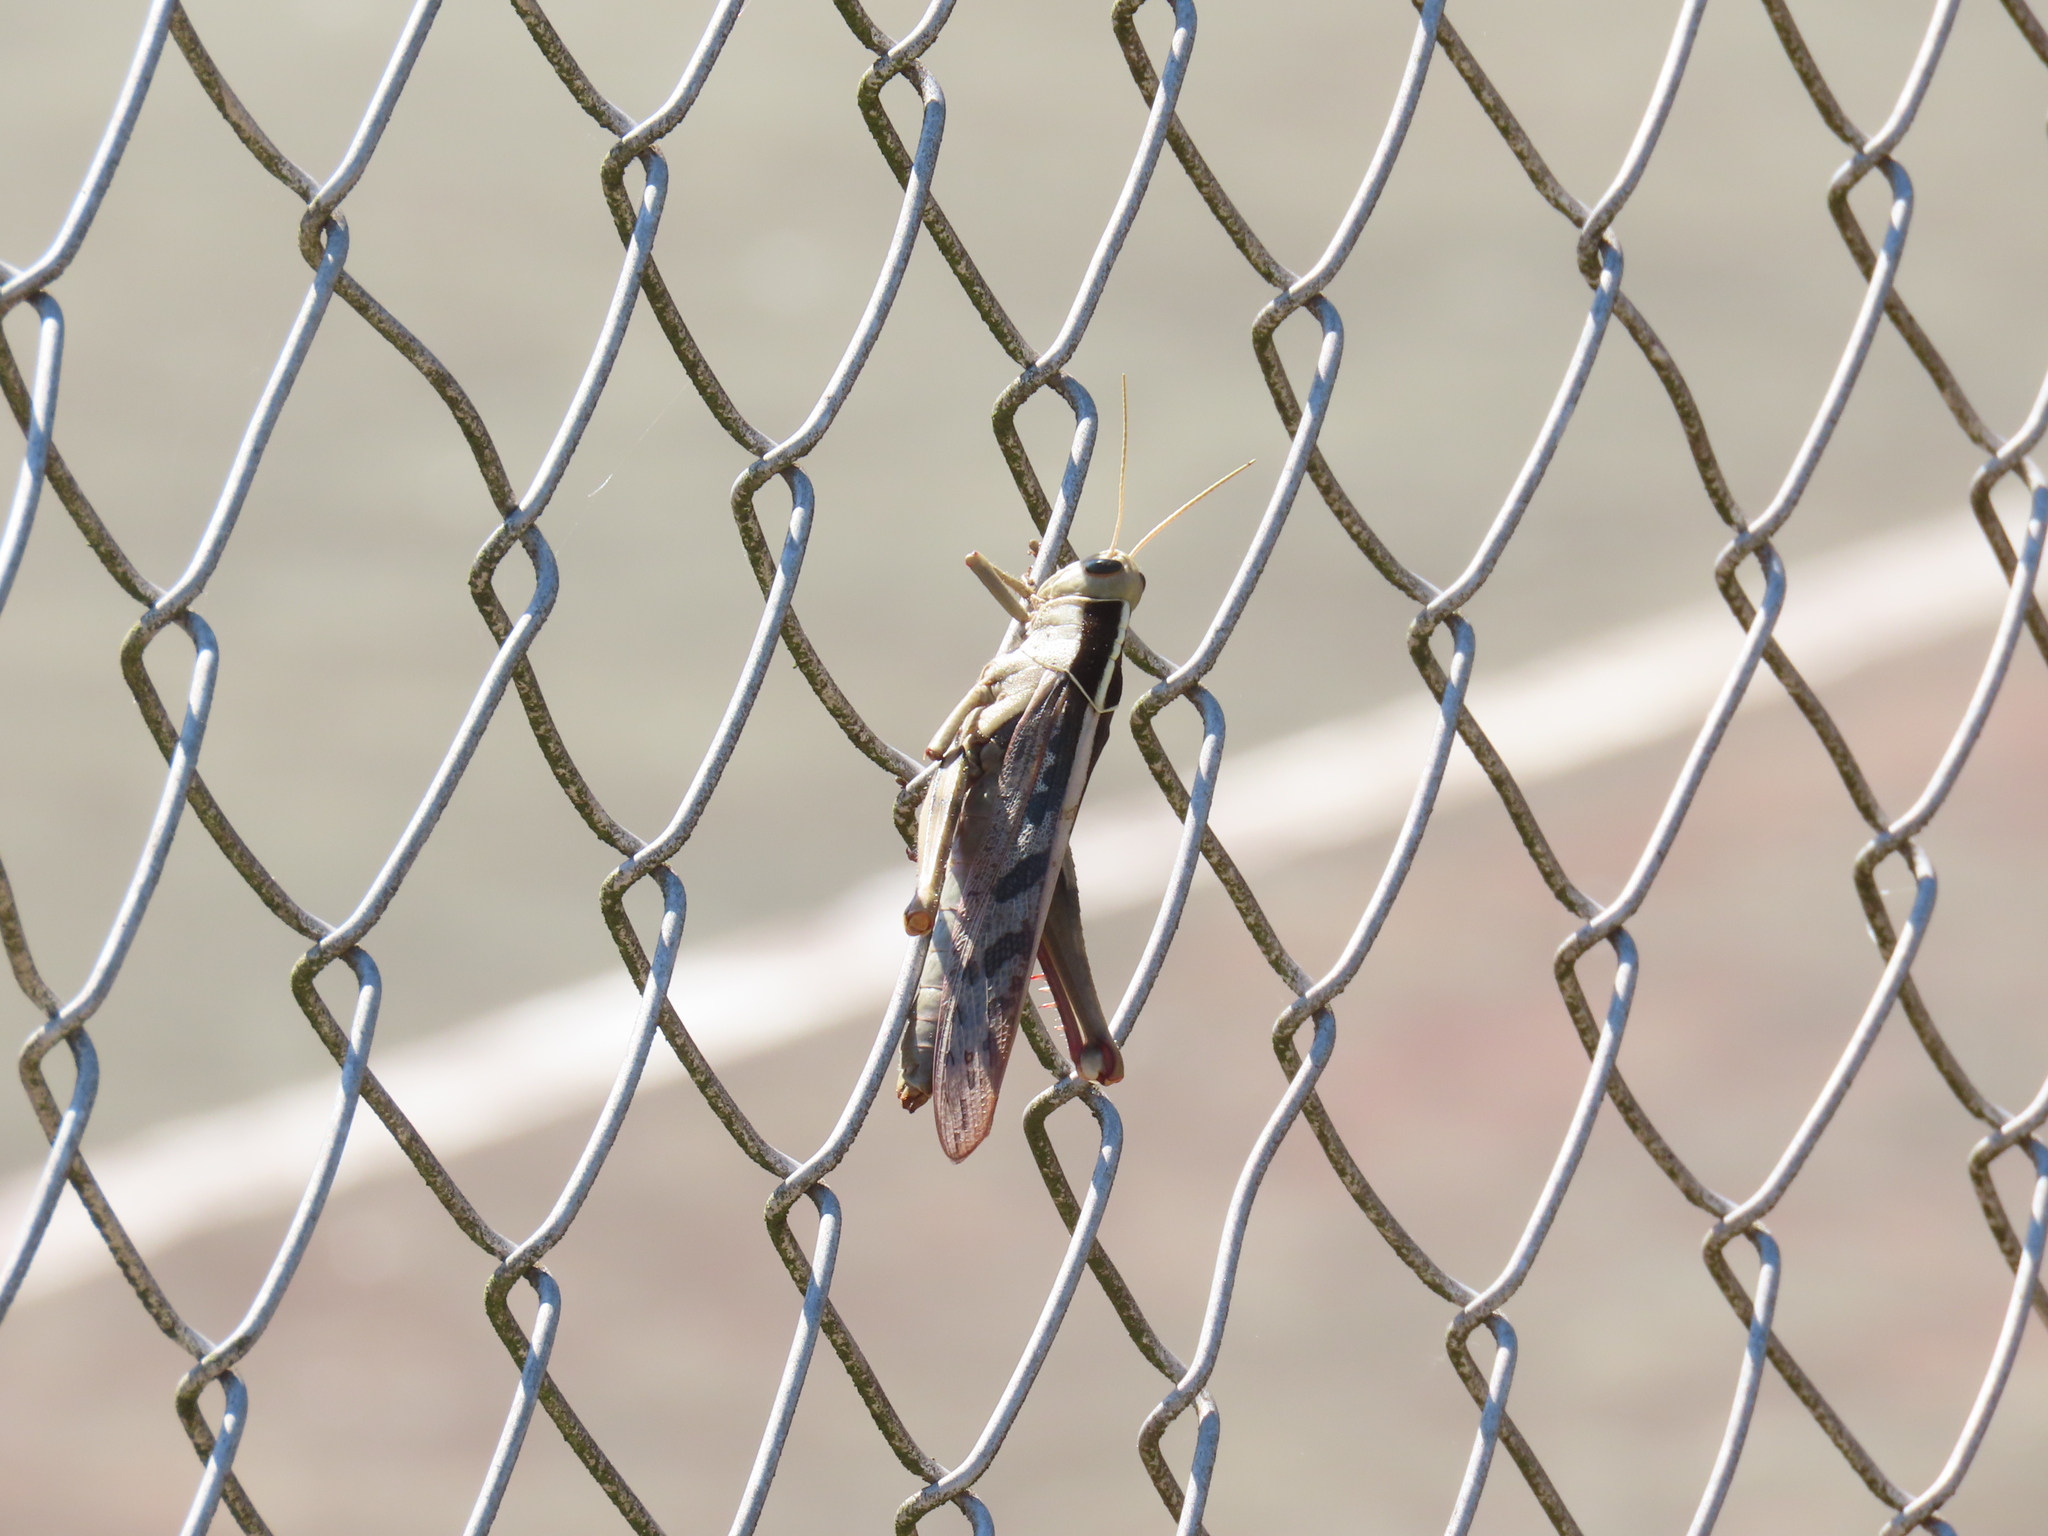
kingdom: Animalia
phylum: Arthropoda
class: Insecta
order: Orthoptera
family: Acrididae
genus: Acanthacris
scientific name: Acanthacris ruficornis
